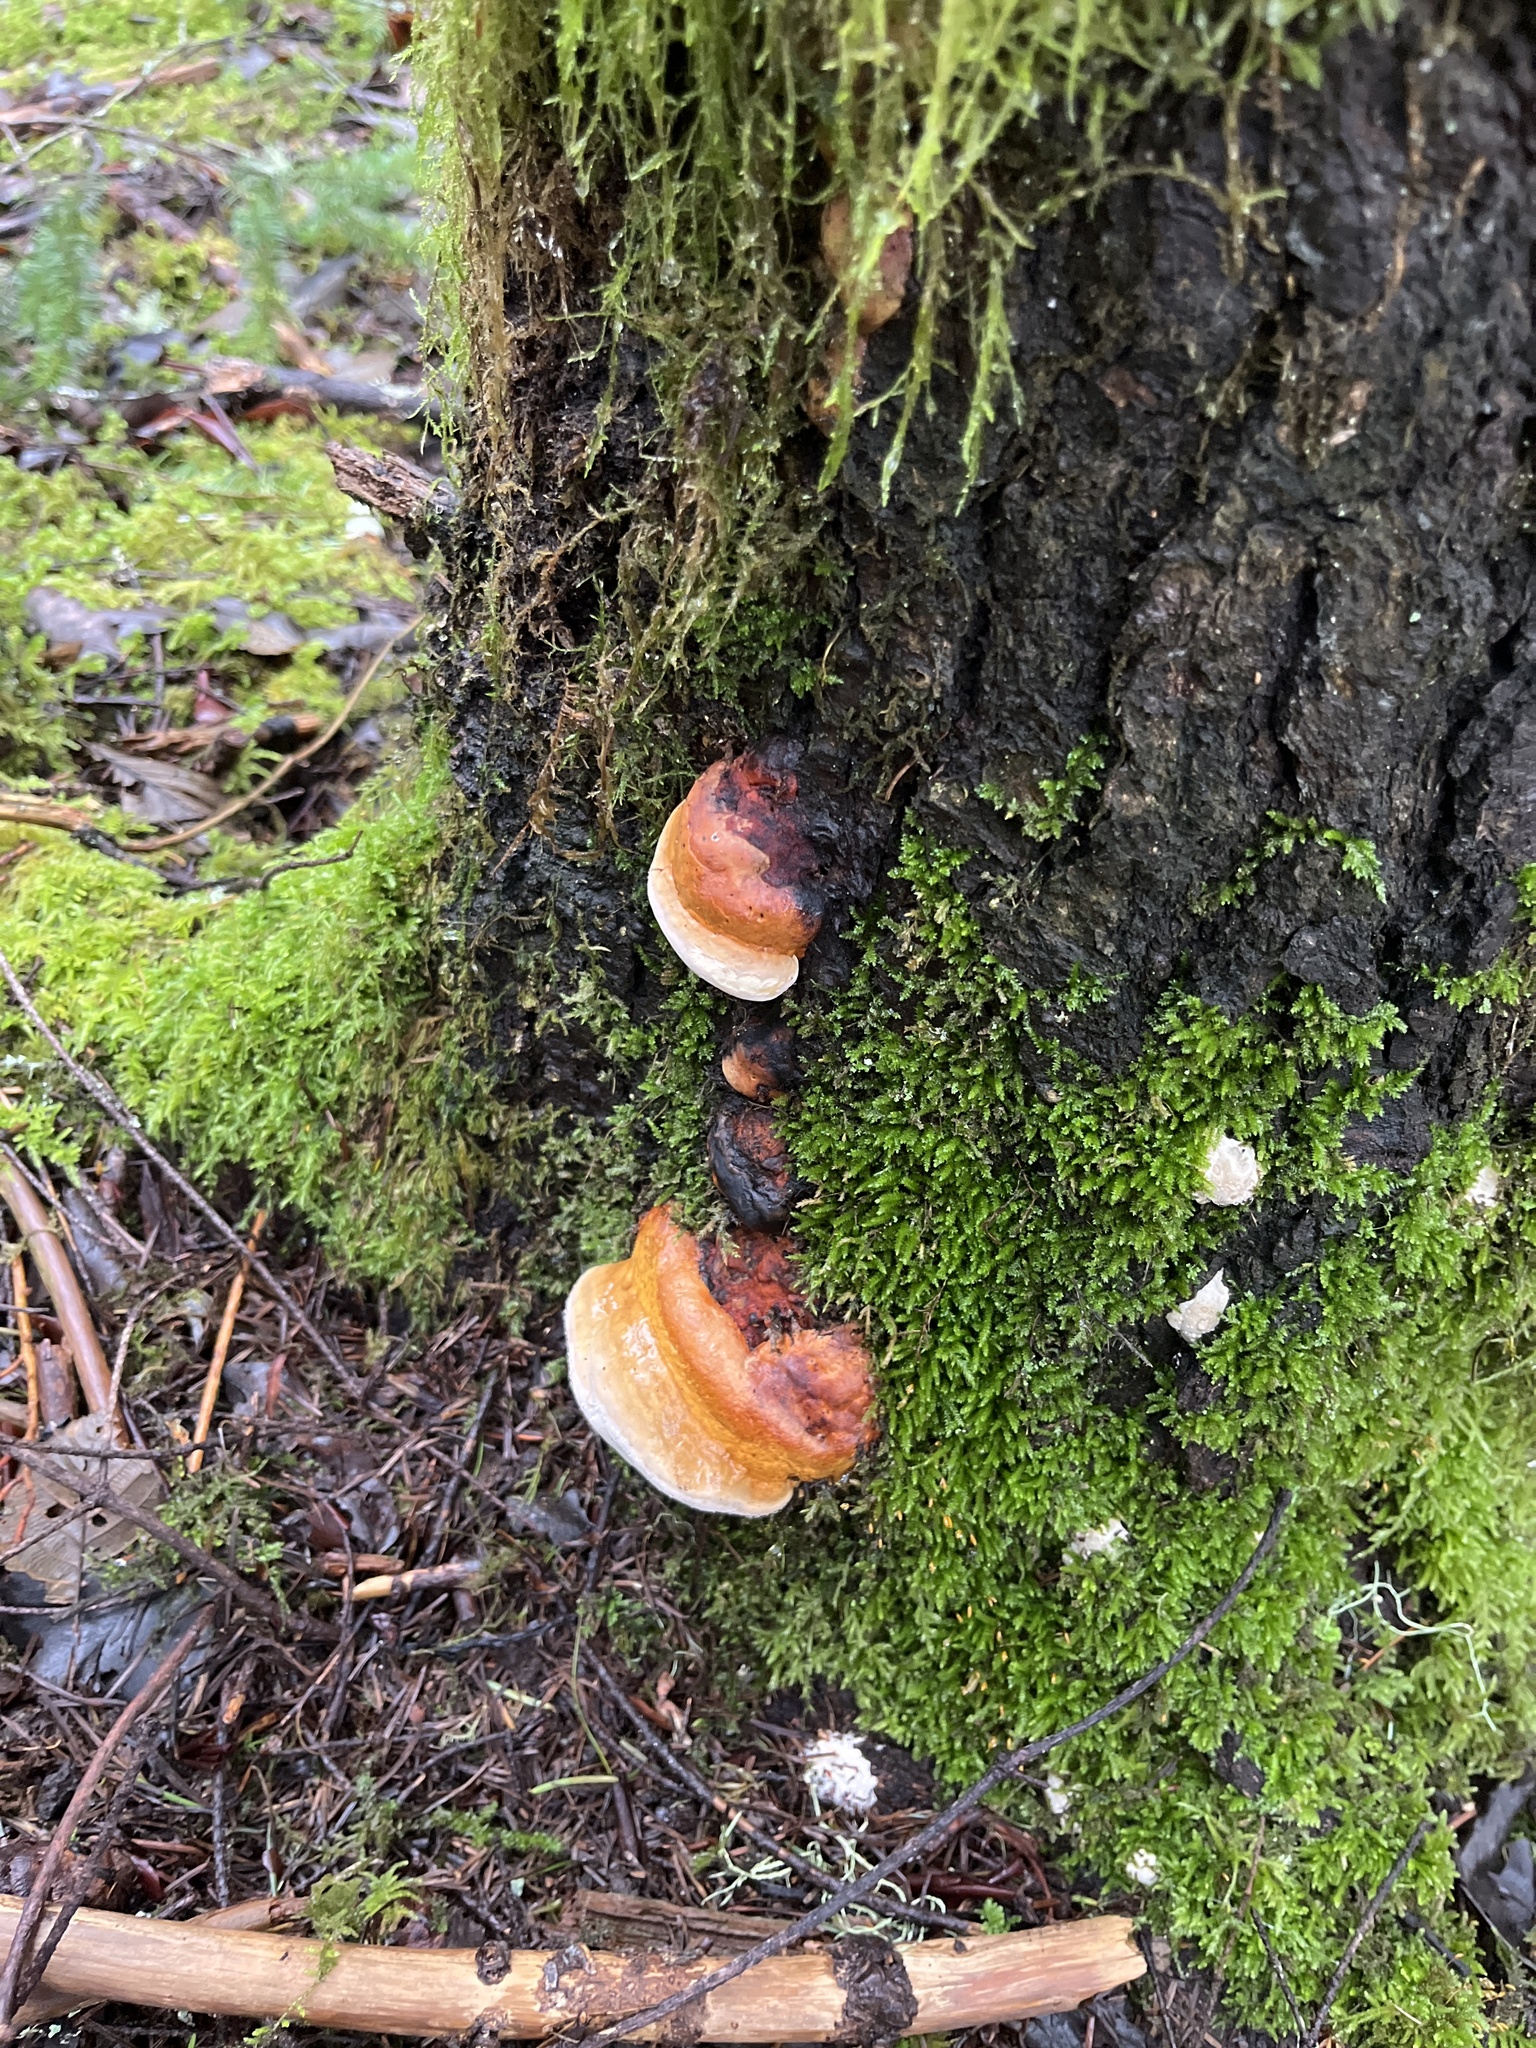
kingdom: Fungi
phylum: Basidiomycota
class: Agaricomycetes
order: Polyporales
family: Fomitopsidaceae
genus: Fomitopsis
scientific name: Fomitopsis mounceae
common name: Northern red belt
